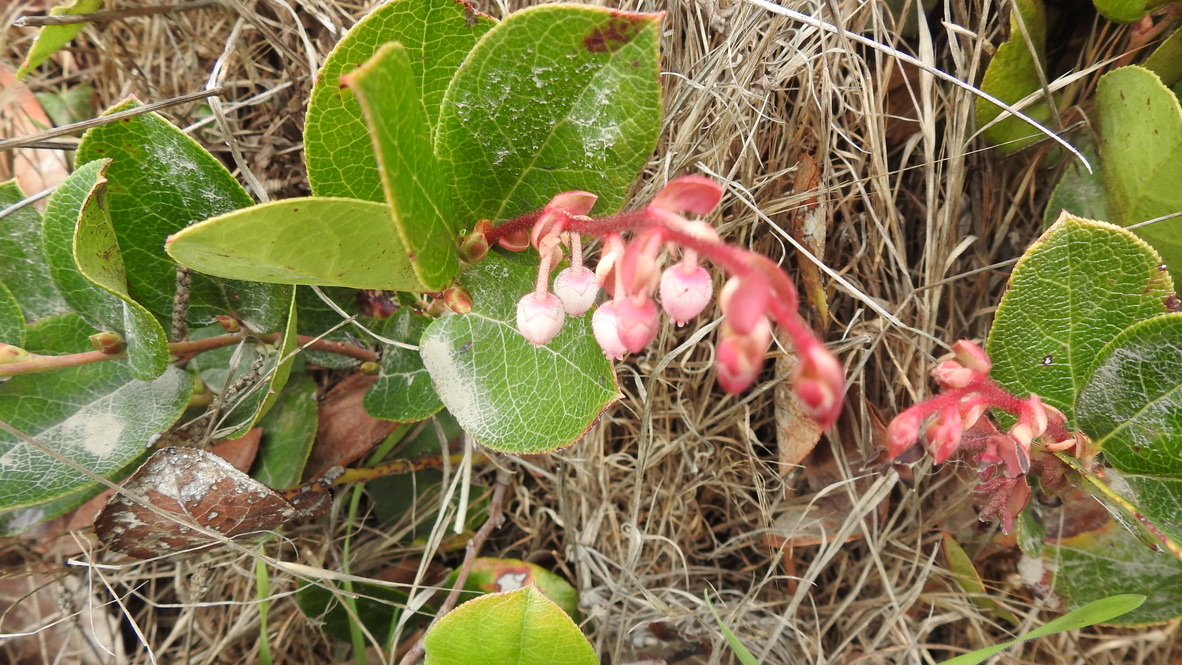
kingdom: Plantae
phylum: Tracheophyta
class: Magnoliopsida
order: Ericales
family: Ericaceae
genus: Gaultheria
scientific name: Gaultheria shallon
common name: Shallon
